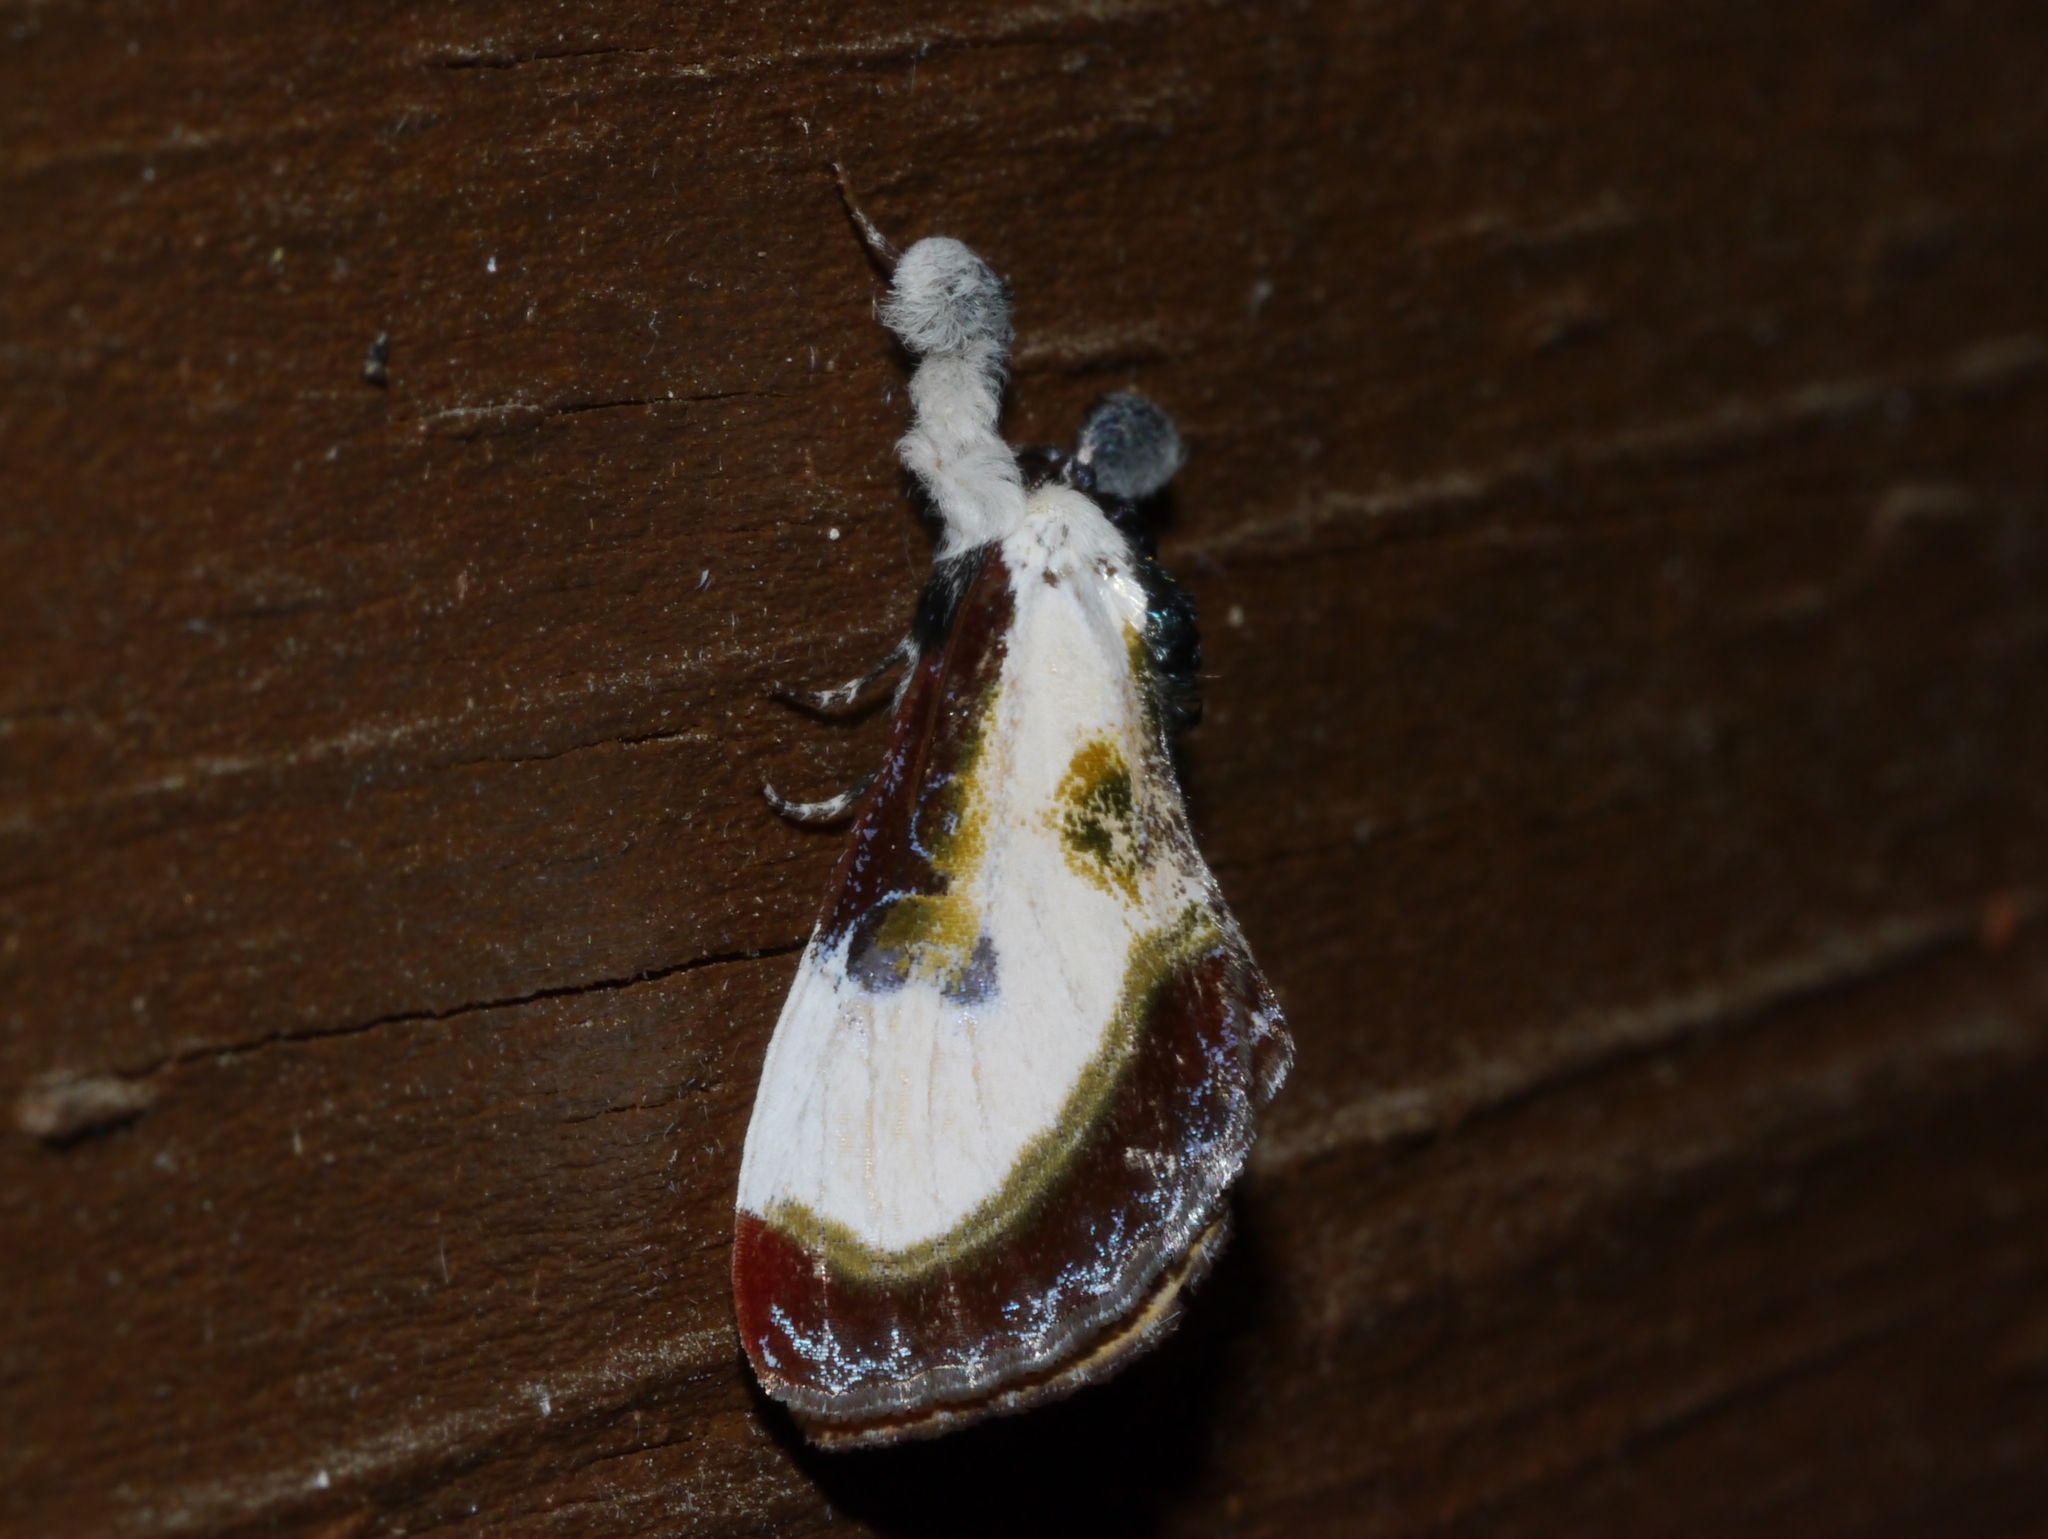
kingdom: Animalia
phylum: Arthropoda
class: Insecta
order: Lepidoptera
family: Noctuidae
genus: Eudryas
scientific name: Eudryas grata
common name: Beautiful wood-nymph
